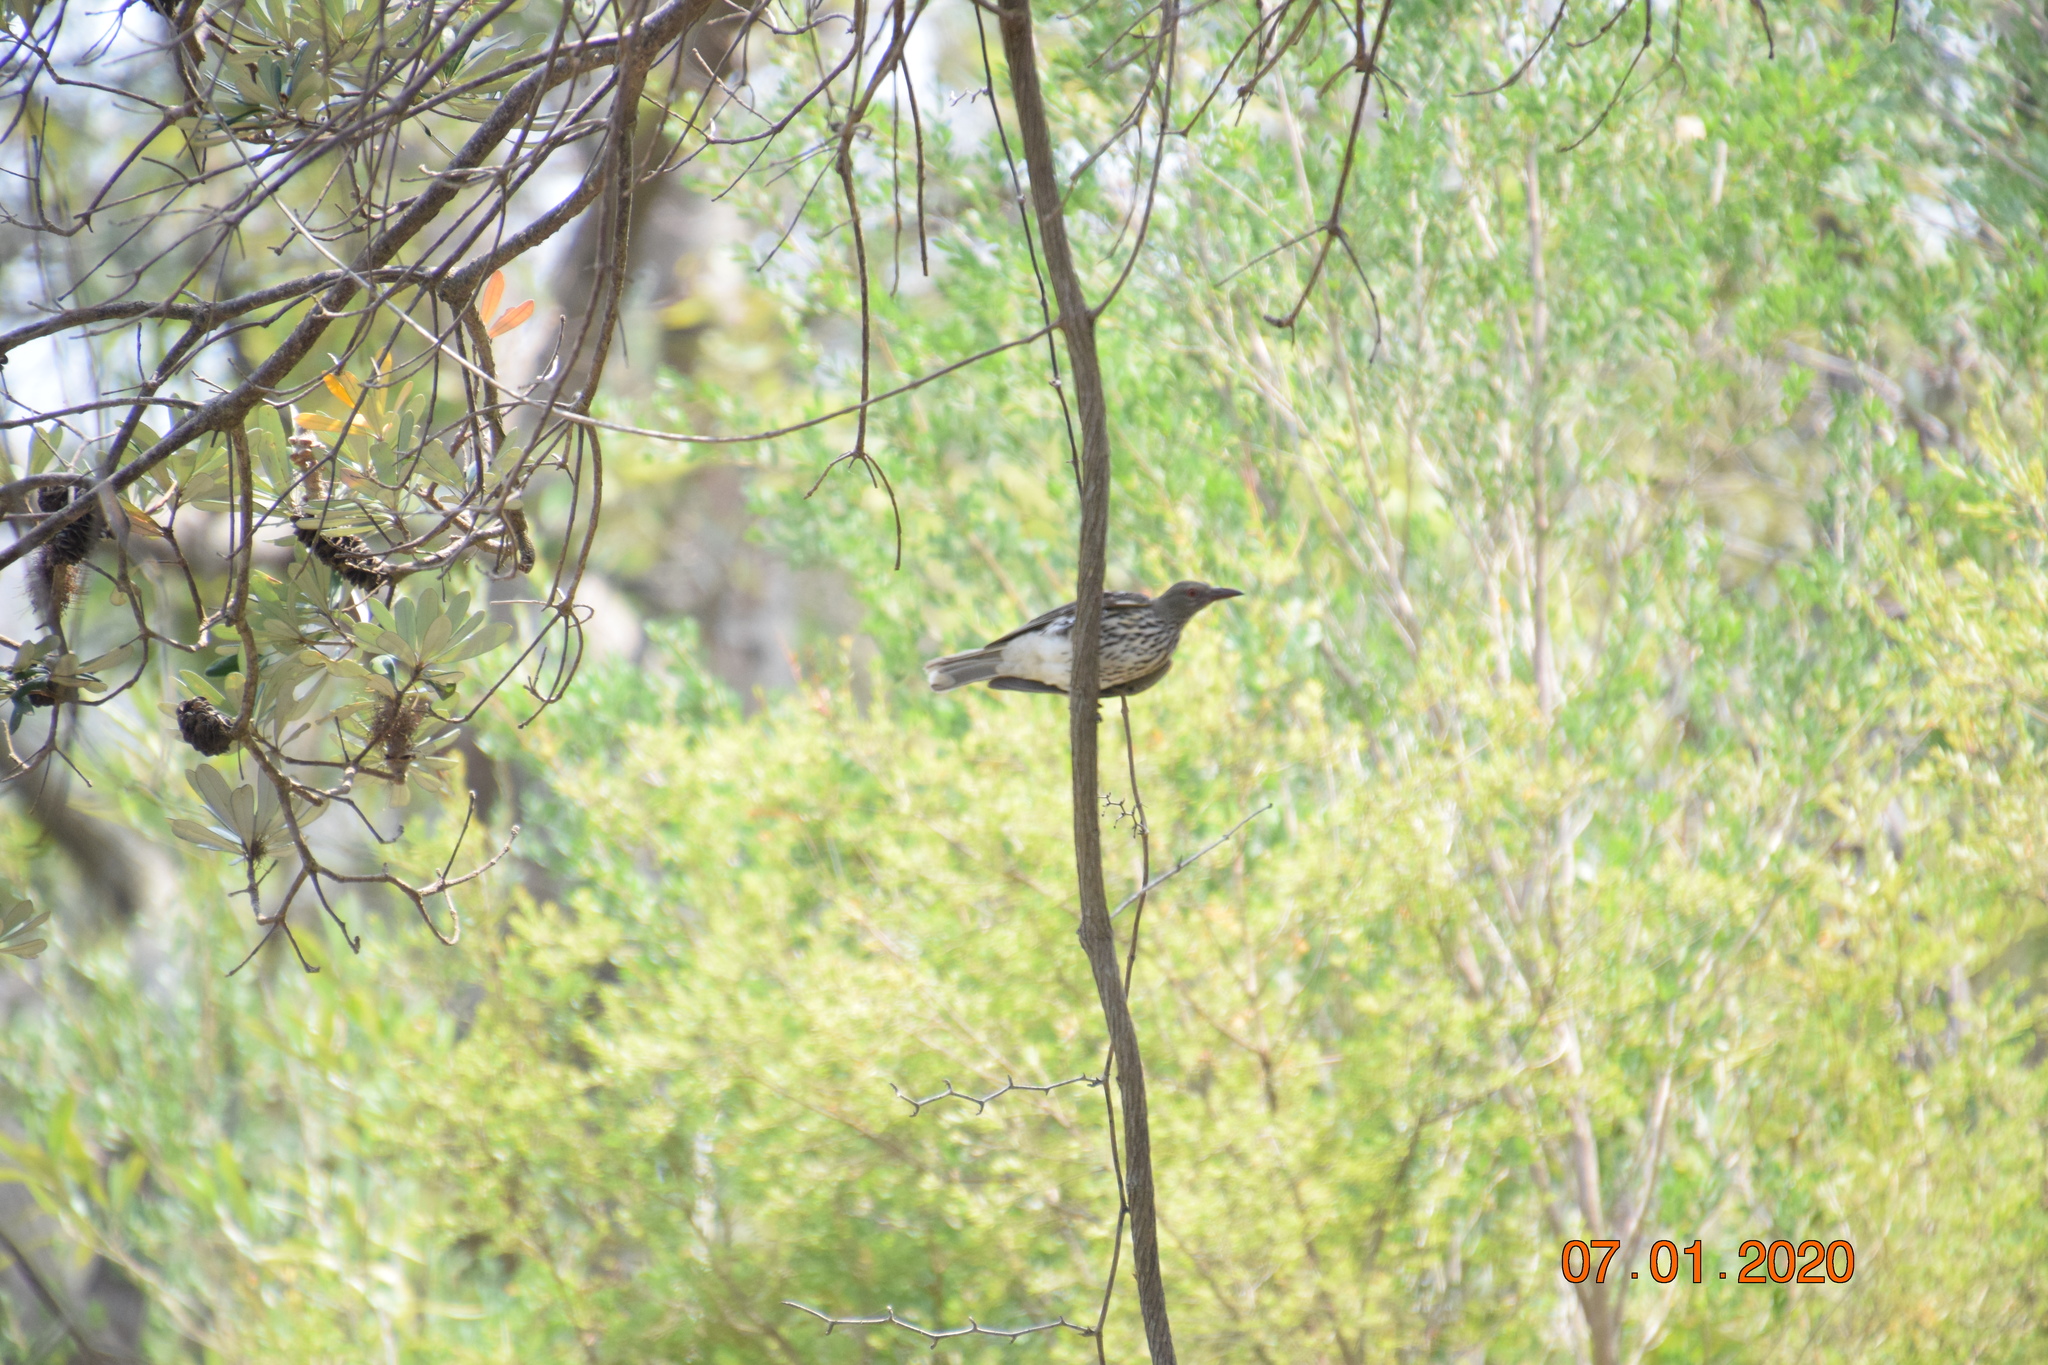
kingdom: Animalia
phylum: Chordata
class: Aves
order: Passeriformes
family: Oriolidae
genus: Oriolus
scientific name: Oriolus sagittatus
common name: Olive-backed oriole
